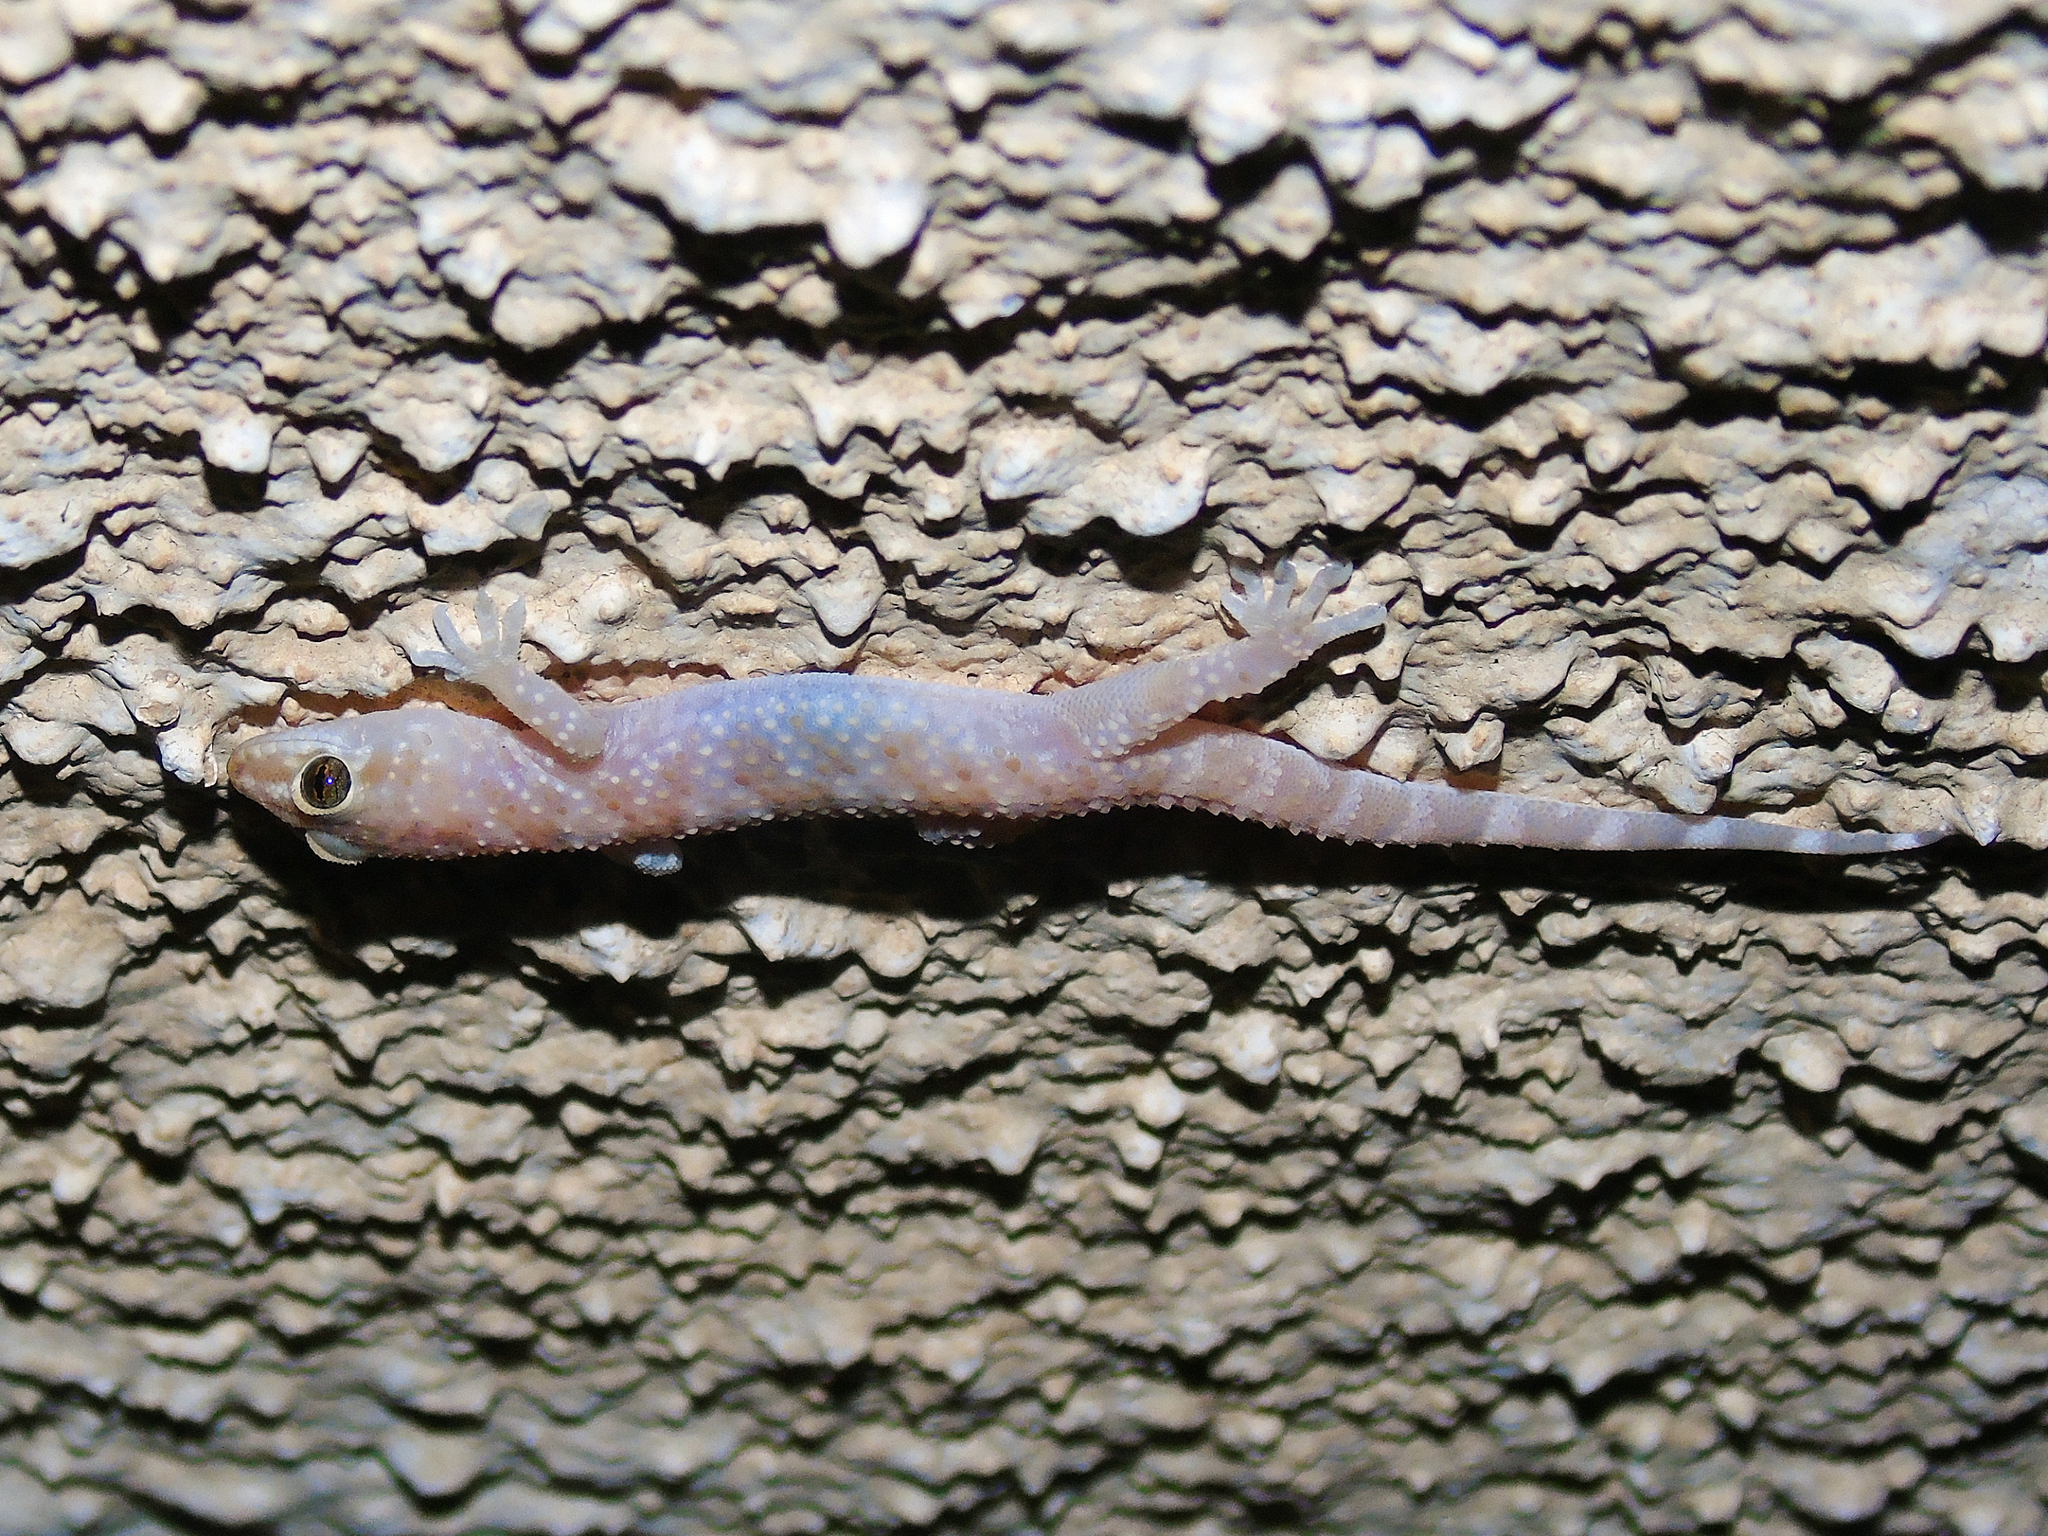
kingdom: Animalia
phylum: Chordata
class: Squamata
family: Gekkonidae
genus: Hemidactylus
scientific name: Hemidactylus turcicus
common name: Turkish gecko
